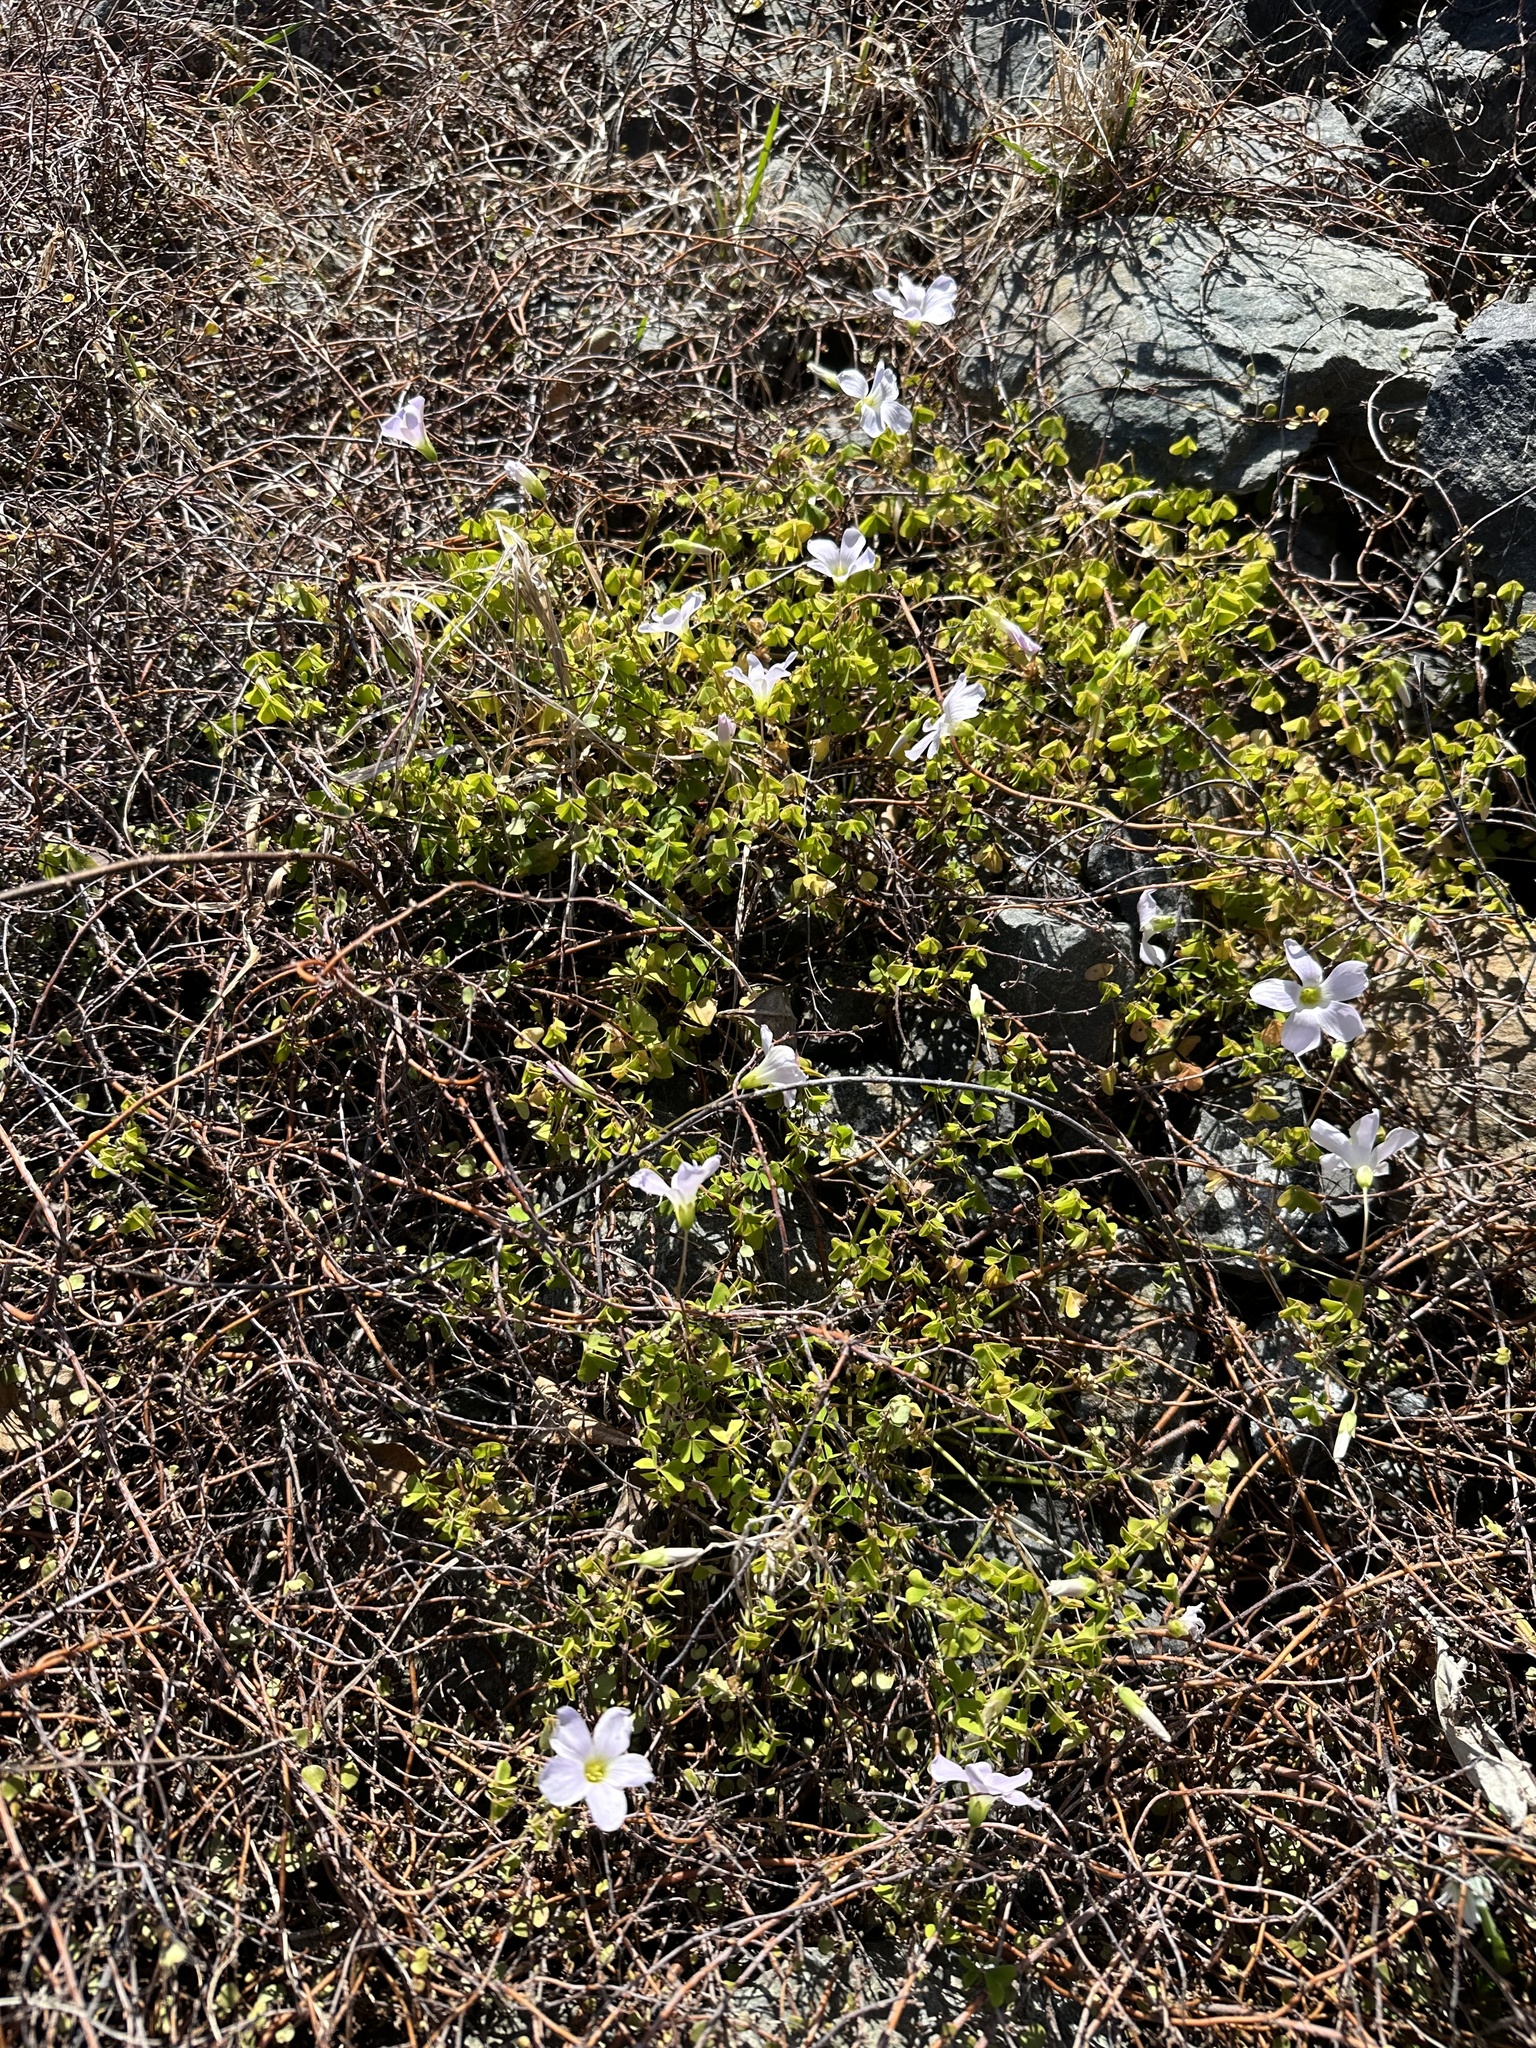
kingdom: Plantae
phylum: Tracheophyta
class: Magnoliopsida
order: Oxalidales
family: Oxalidaceae
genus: Oxalis
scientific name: Oxalis incarnata
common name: Pale pink-sorrel
